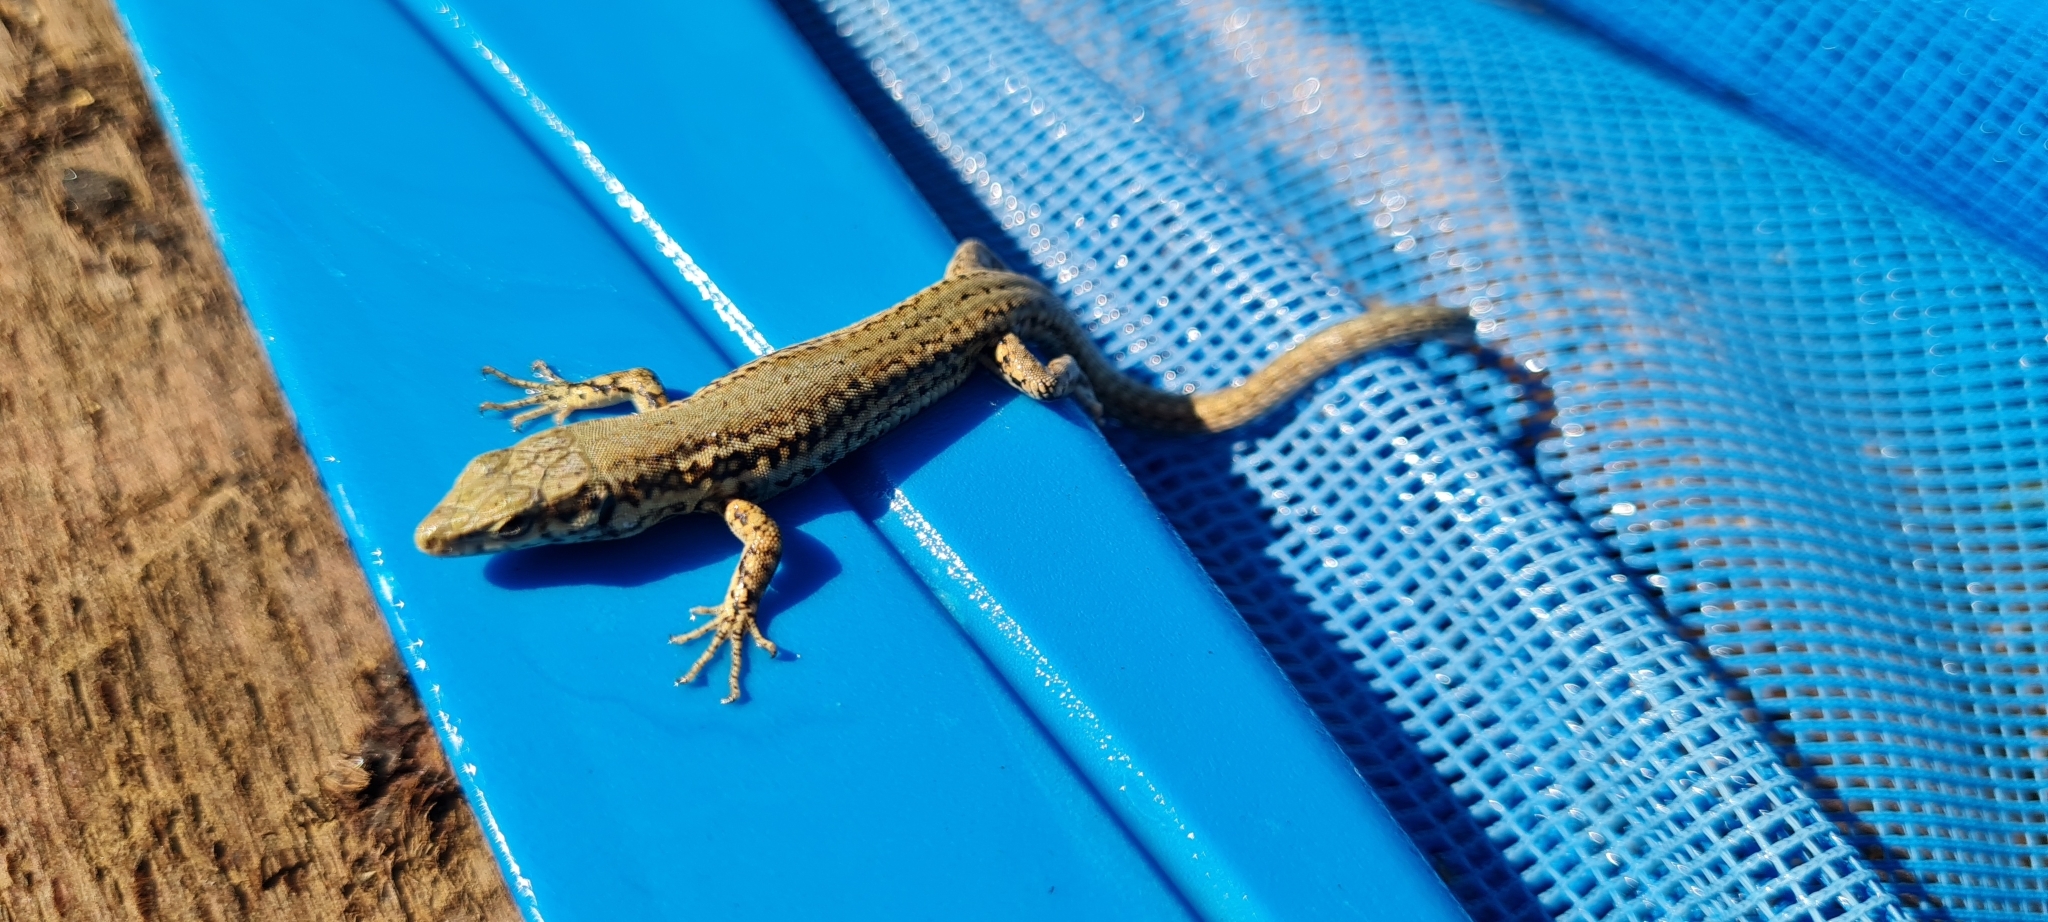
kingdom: Animalia
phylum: Chordata
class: Squamata
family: Lacertidae
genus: Podarcis
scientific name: Podarcis liolepis
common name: Catalonian wall lizard
